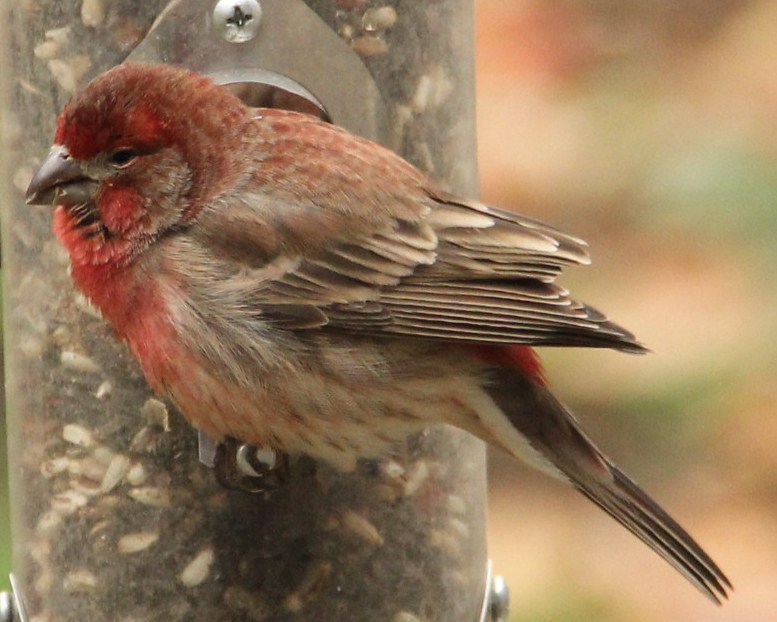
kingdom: Animalia
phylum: Chordata
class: Aves
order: Passeriformes
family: Fringillidae
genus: Haemorhous
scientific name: Haemorhous mexicanus
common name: House finch
